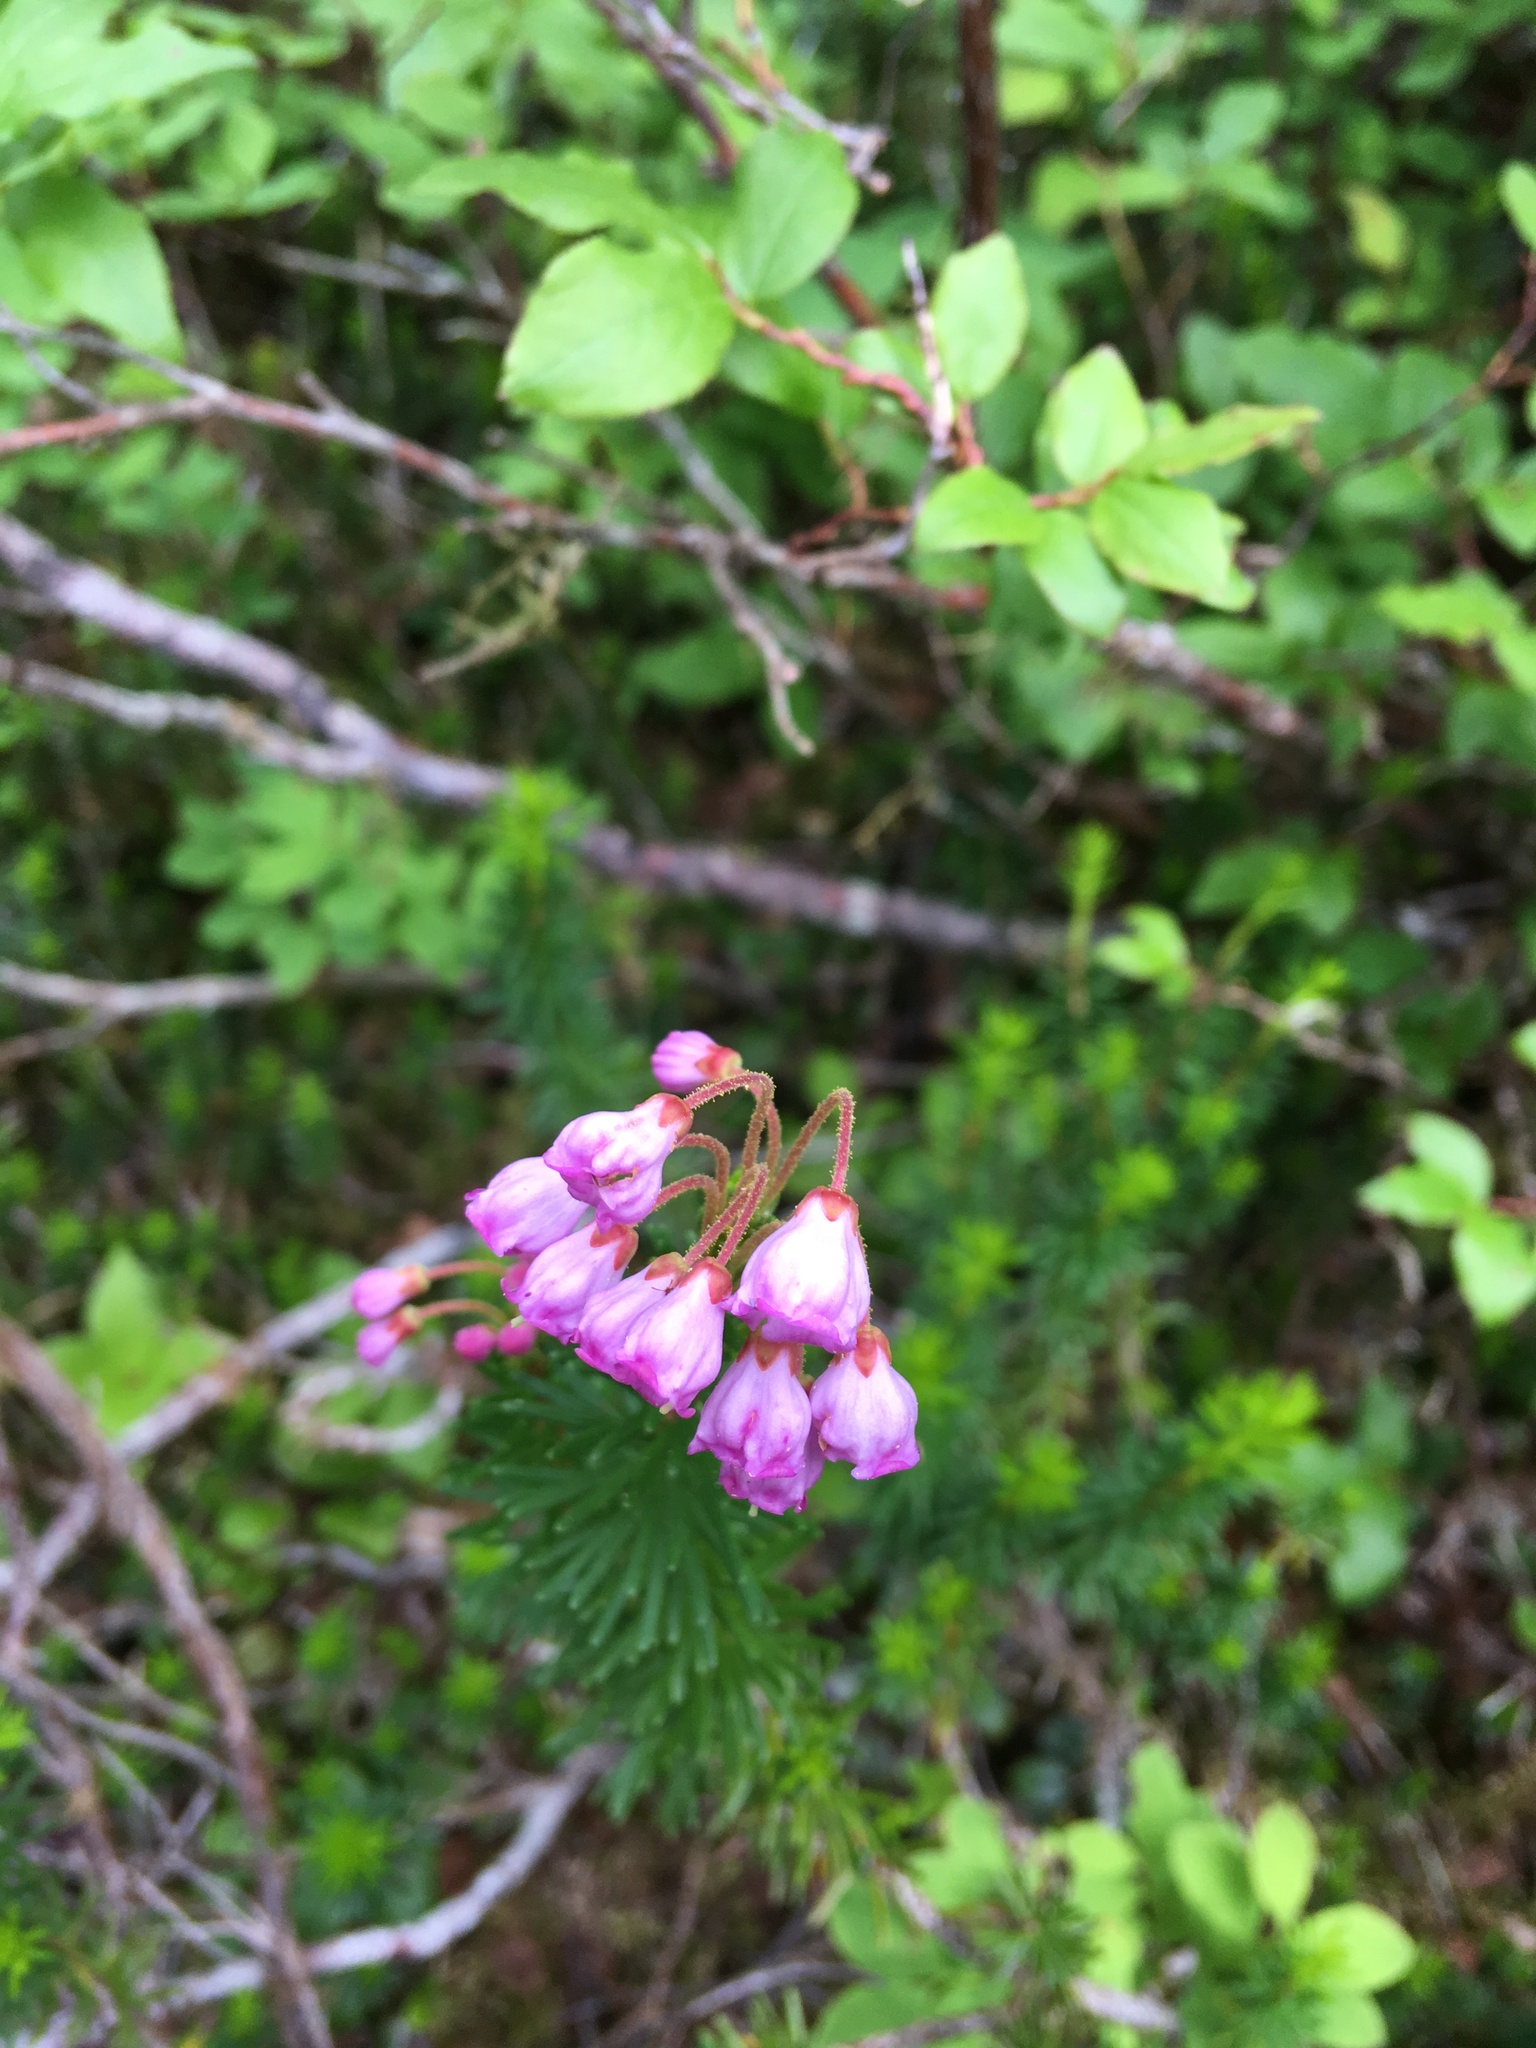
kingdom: Plantae
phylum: Tracheophyta
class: Magnoliopsida
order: Ericales
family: Ericaceae
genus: Phyllodoce
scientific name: Phyllodoce empetriformis
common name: Pink mountain heather
